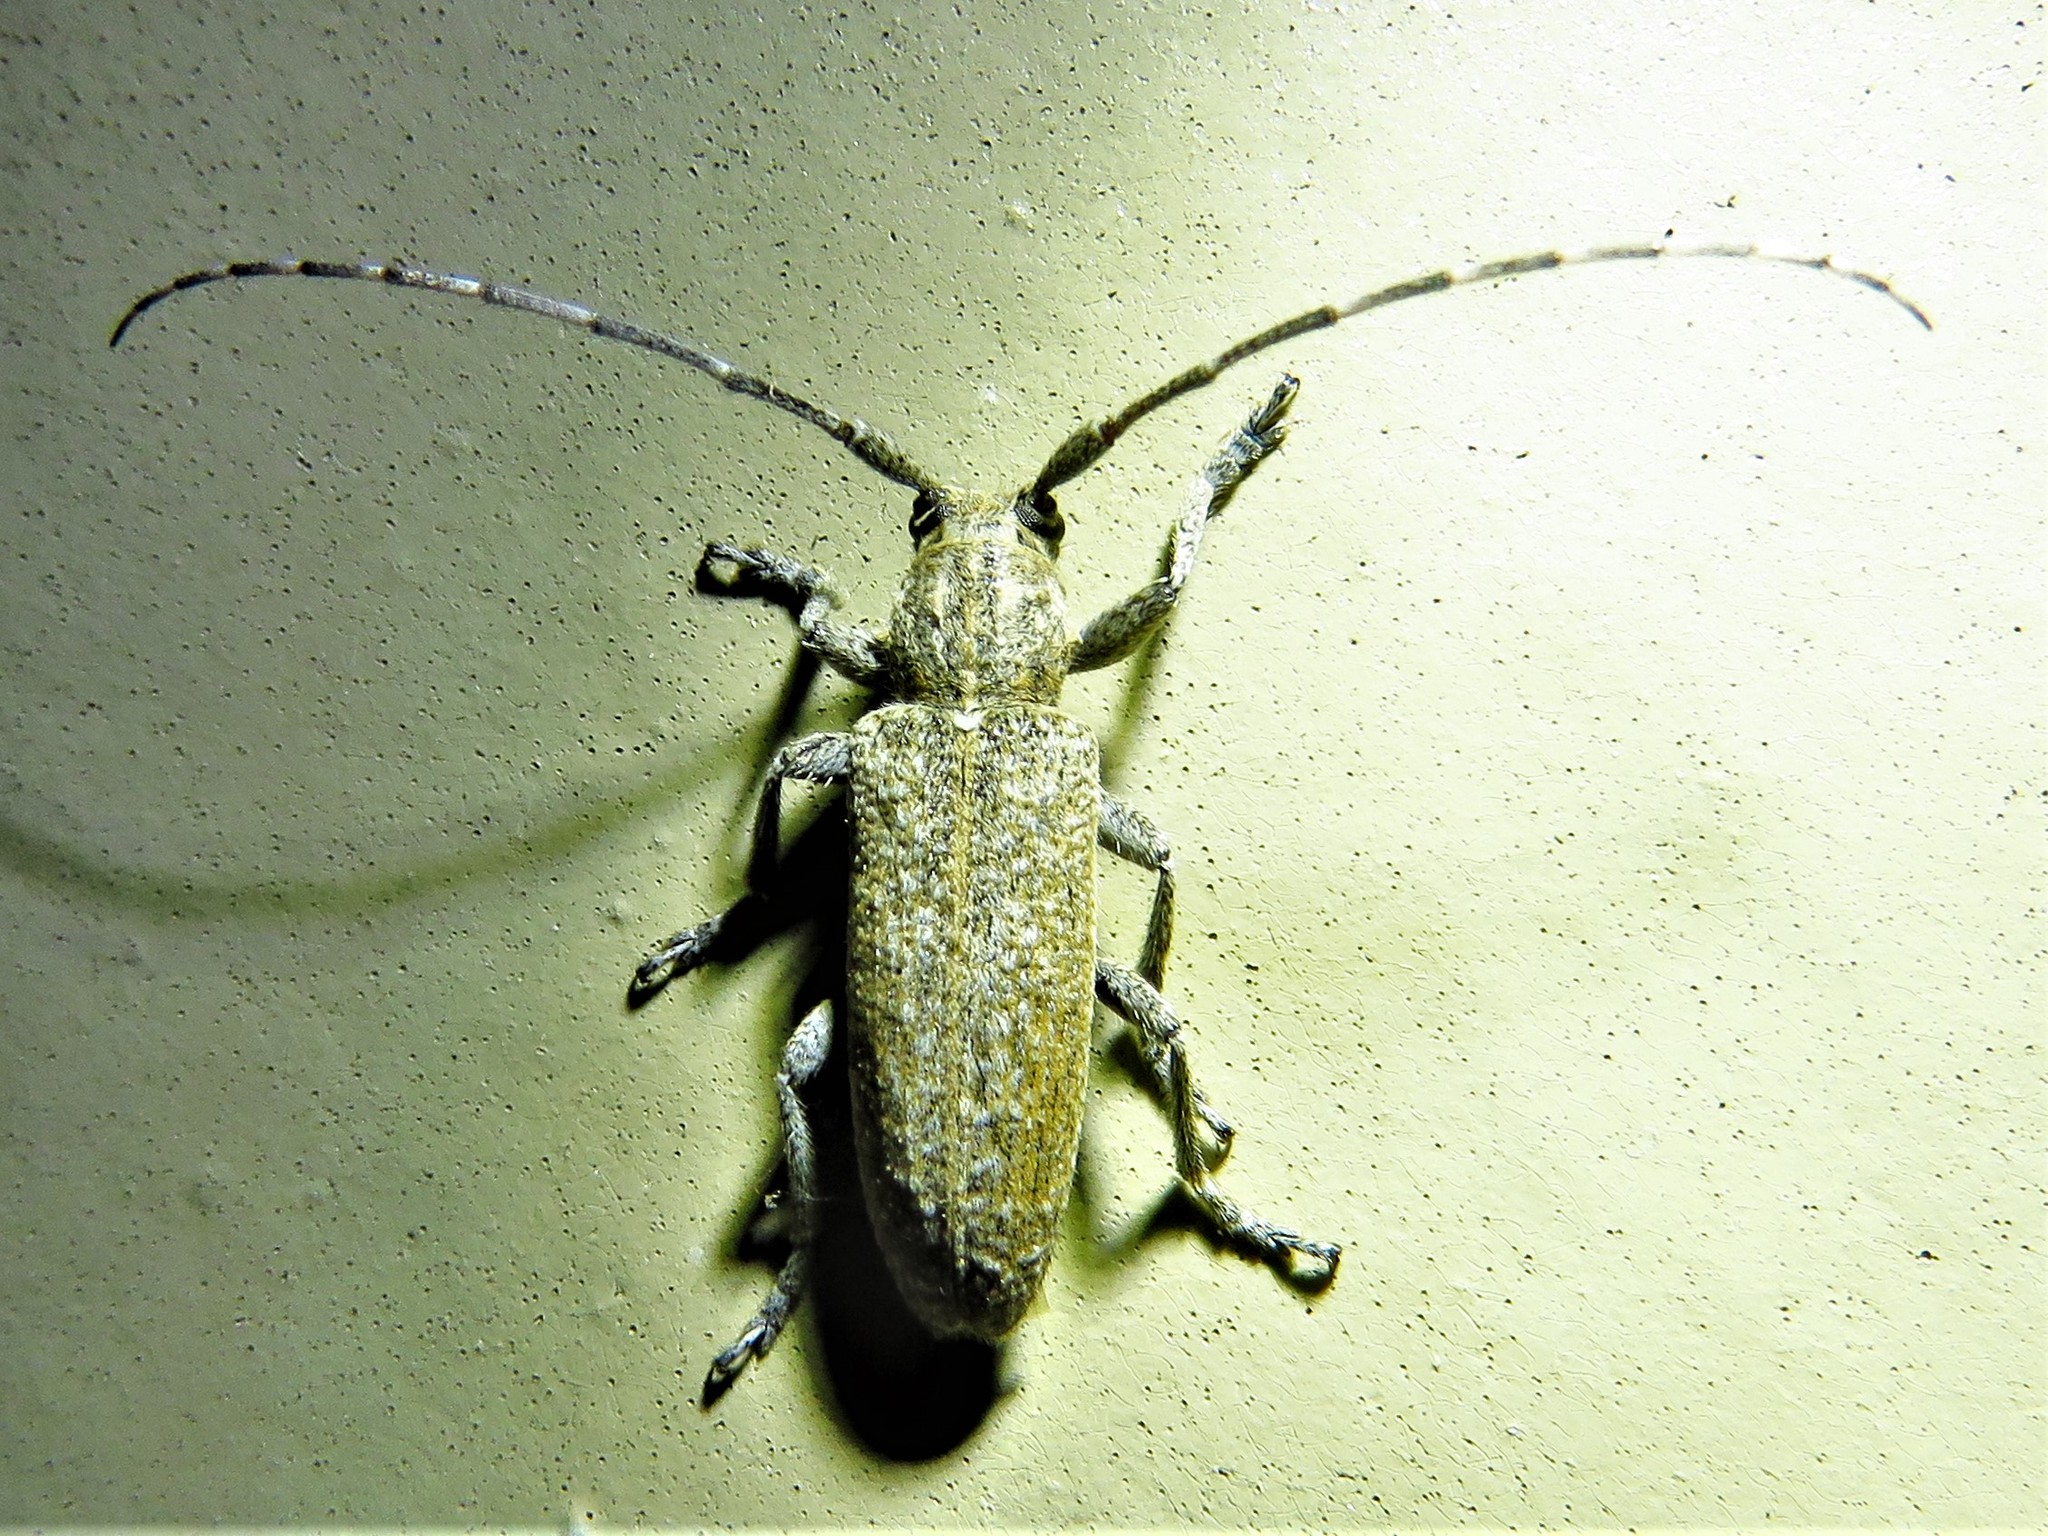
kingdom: Animalia
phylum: Arthropoda
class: Insecta
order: Coleoptera
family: Cerambycidae
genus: Ataxia
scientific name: Ataxia hubbardi
